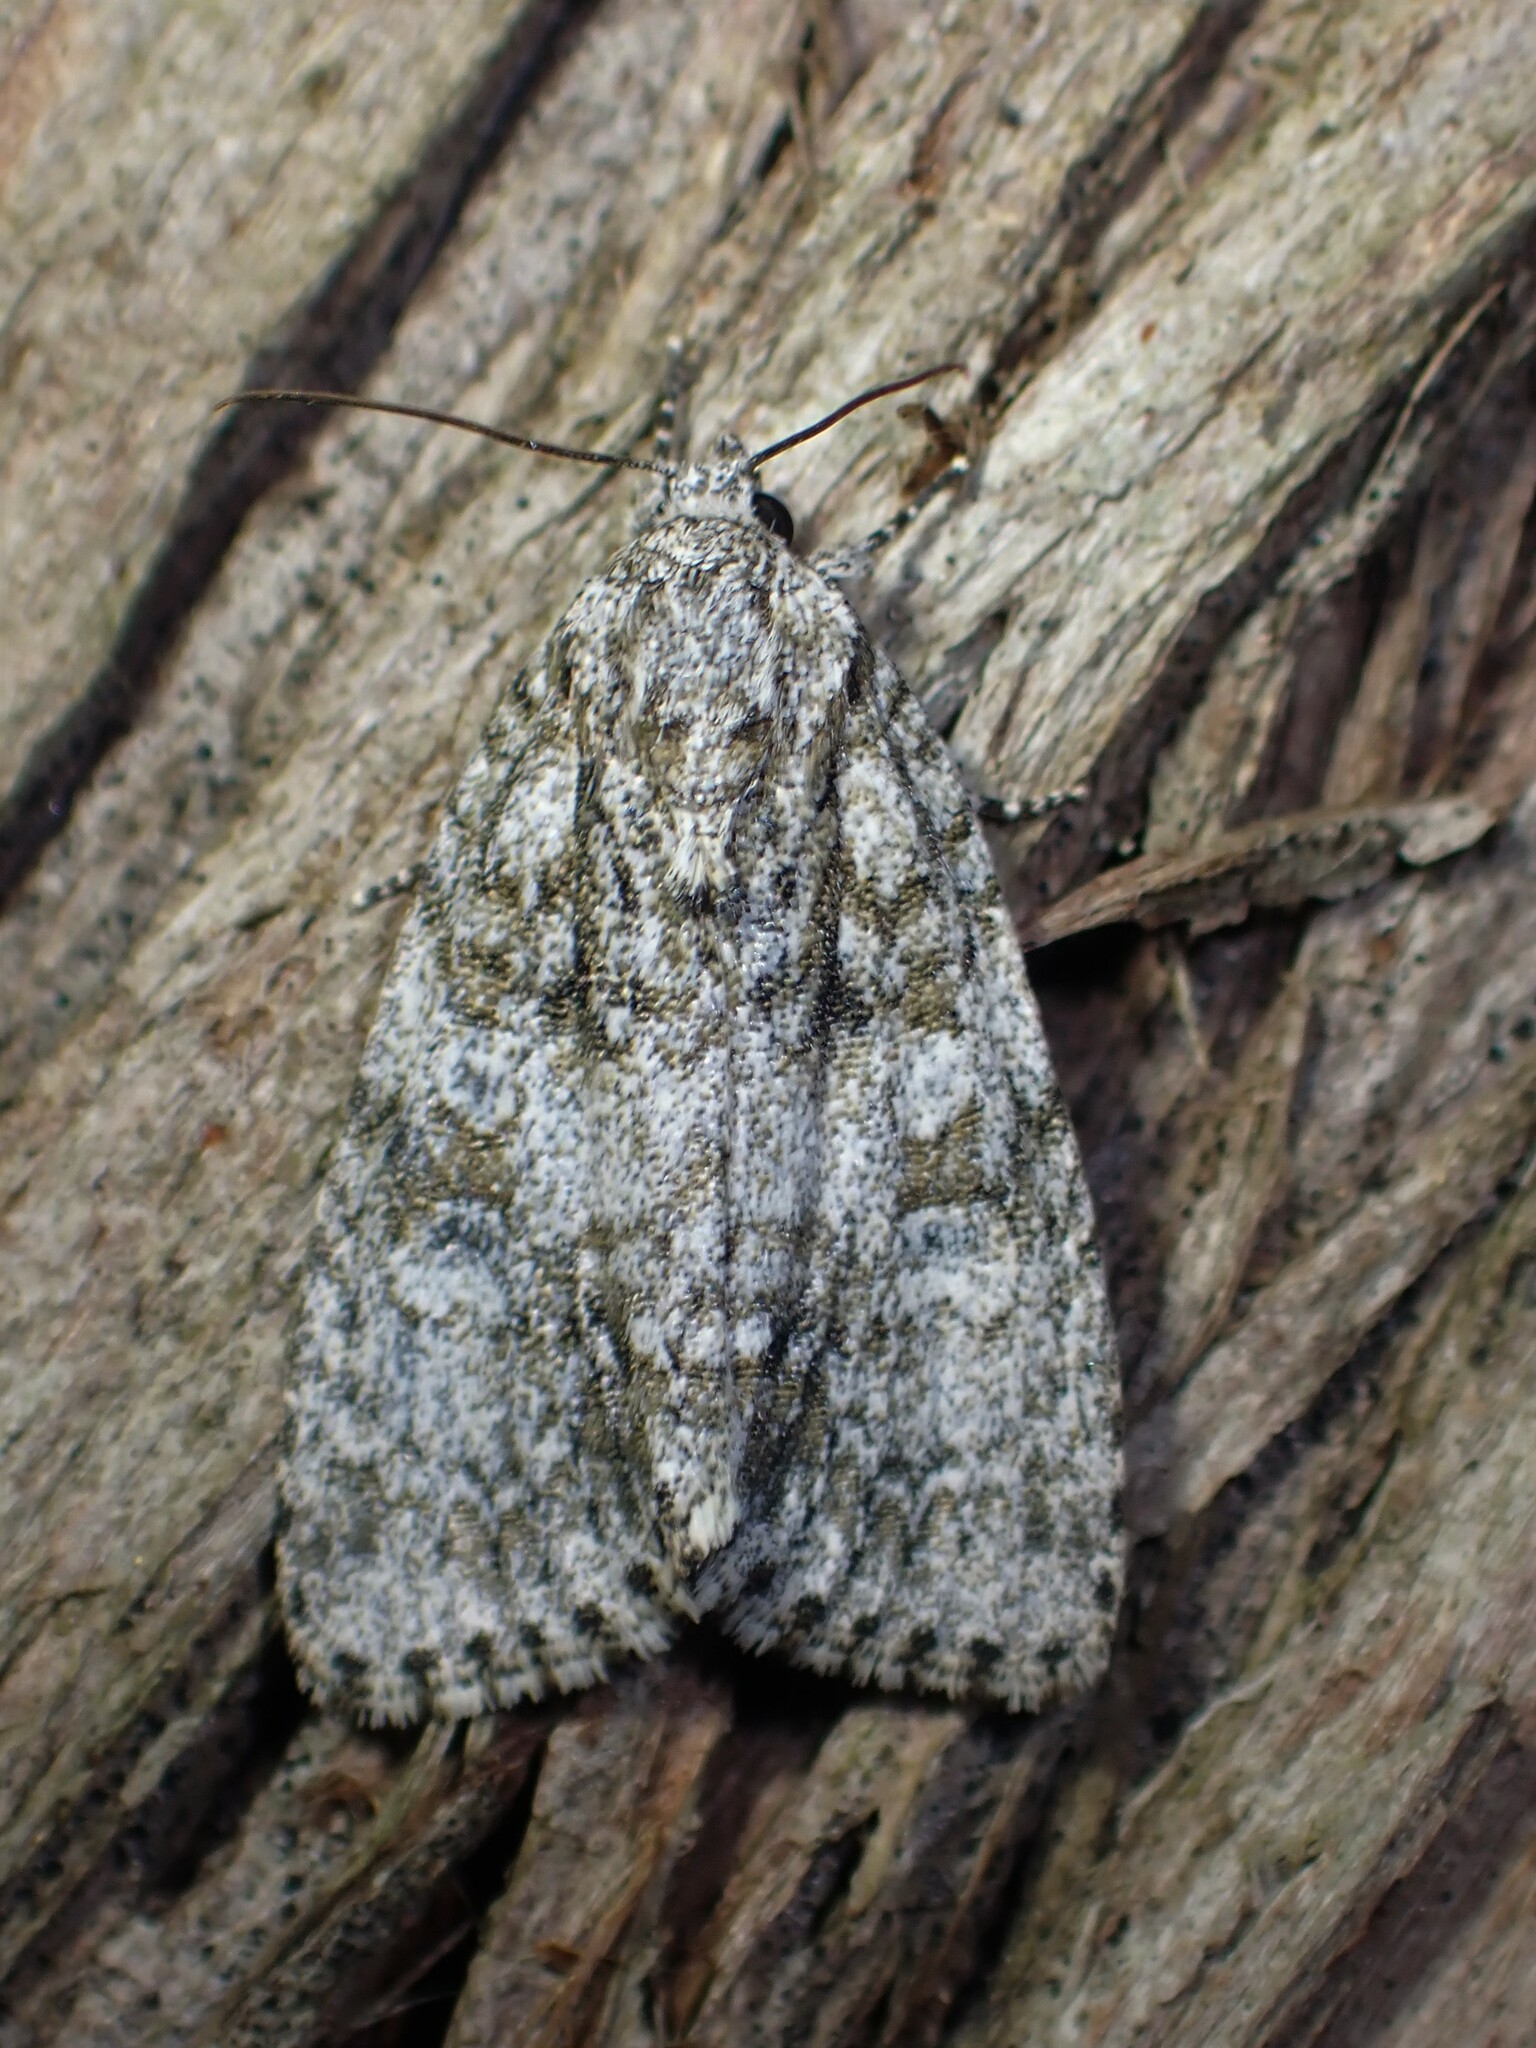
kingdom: Animalia
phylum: Arthropoda
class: Insecta
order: Lepidoptera
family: Noctuidae
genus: Acronicta
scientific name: Acronicta retardata
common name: Maple dagger
